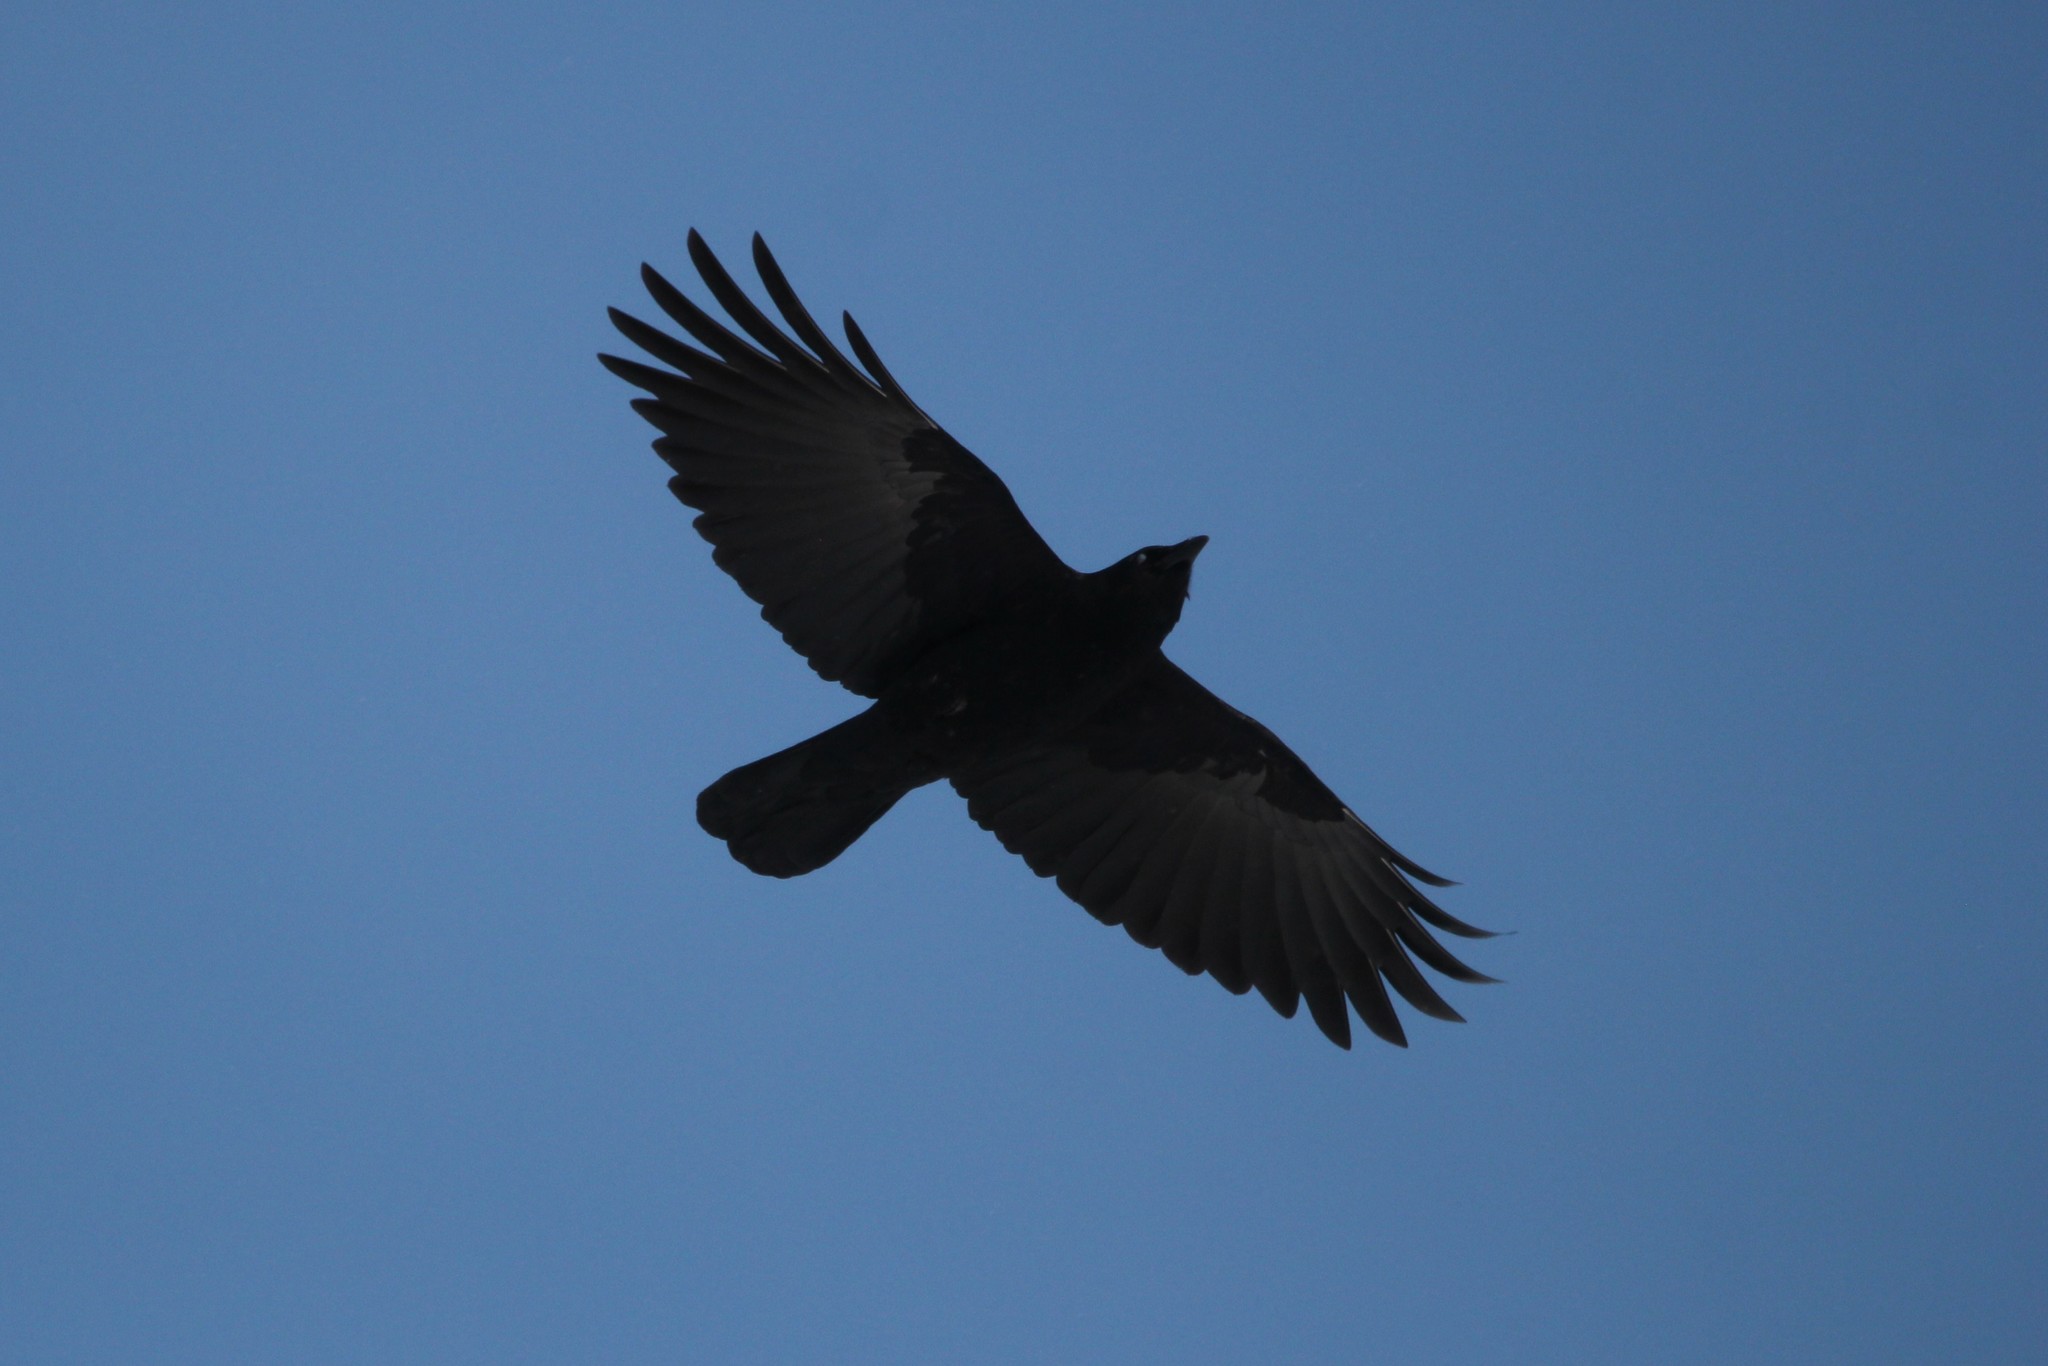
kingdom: Animalia
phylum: Chordata
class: Aves
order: Passeriformes
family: Corvidae
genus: Corvus
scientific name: Corvus brachyrhynchos
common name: American crow
